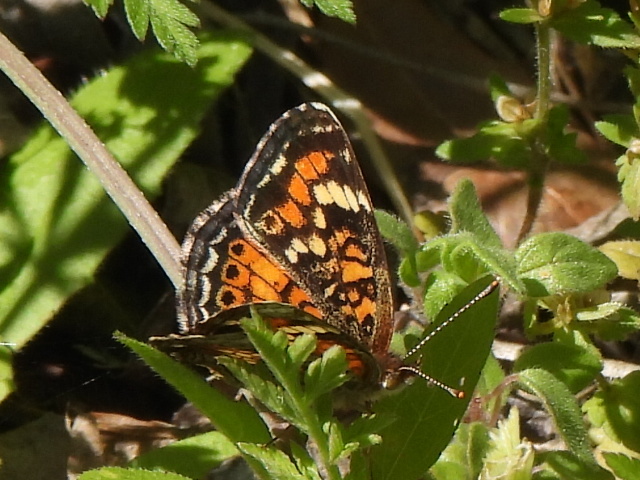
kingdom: Animalia
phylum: Arthropoda
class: Insecta
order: Lepidoptera
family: Nymphalidae
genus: Phyciodes
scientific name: Phyciodes phaon
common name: Phaon crescent
